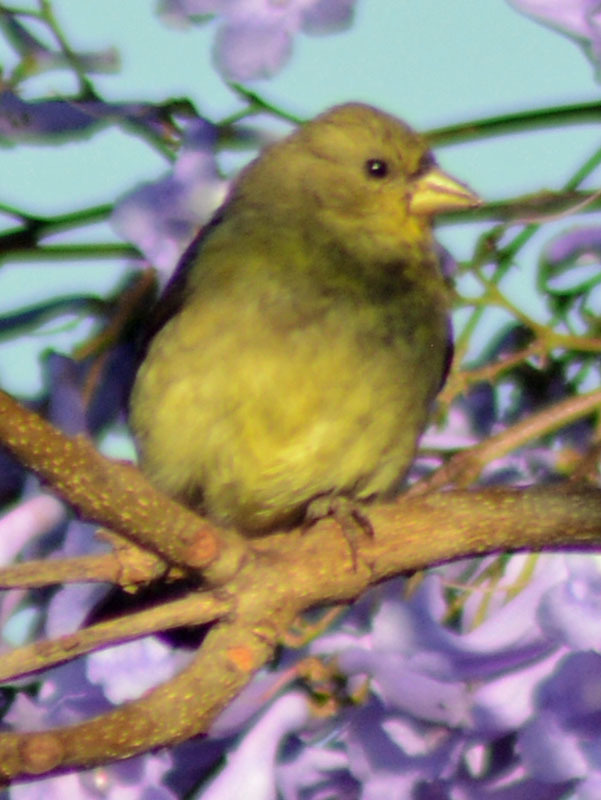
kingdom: Animalia
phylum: Chordata
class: Aves
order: Passeriformes
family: Fringillidae
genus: Spinus
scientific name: Spinus psaltria
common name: Lesser goldfinch
